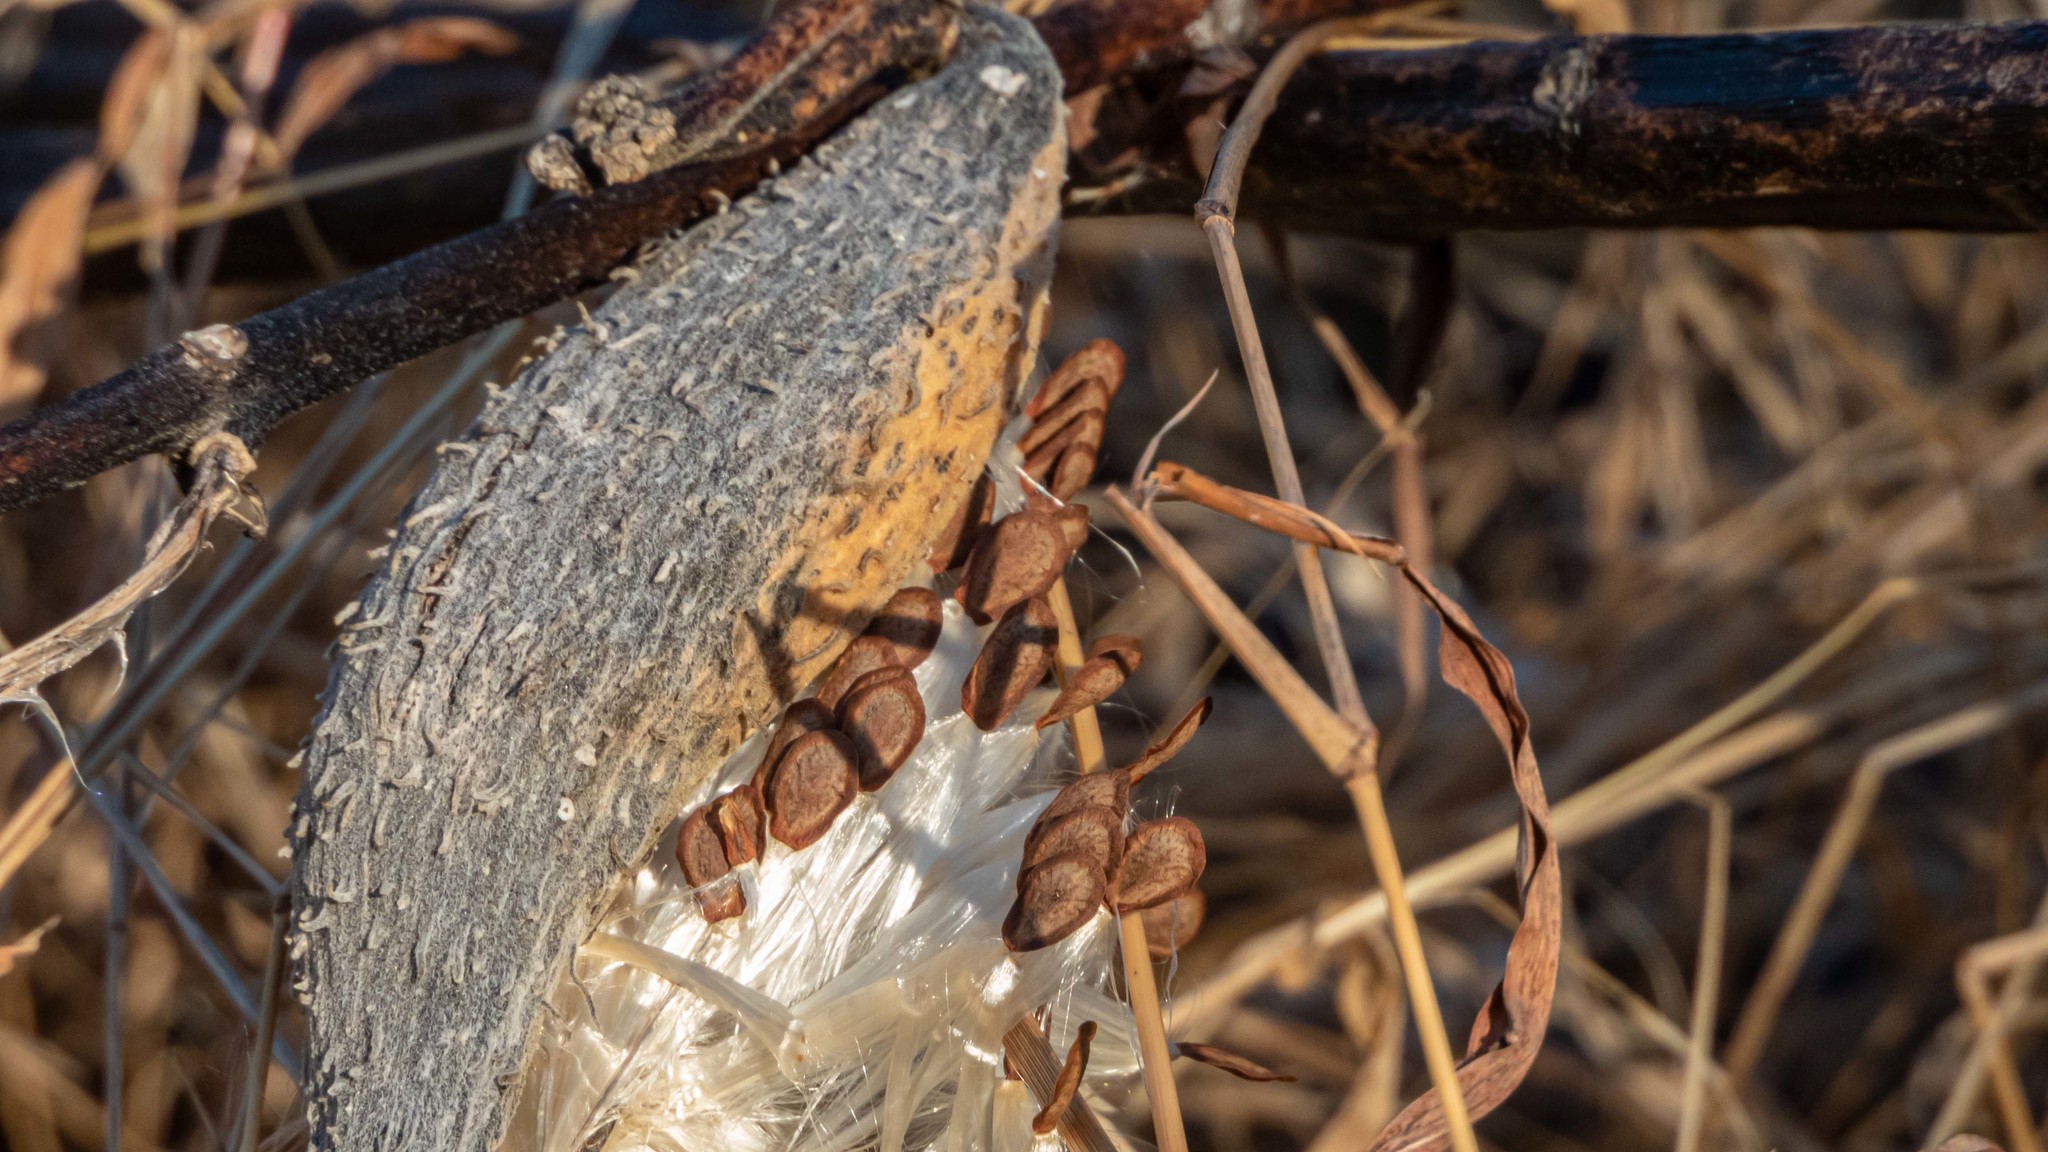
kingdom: Plantae
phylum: Tracheophyta
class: Magnoliopsida
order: Gentianales
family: Apocynaceae
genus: Asclepias
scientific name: Asclepias syriaca
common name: Common milkweed
